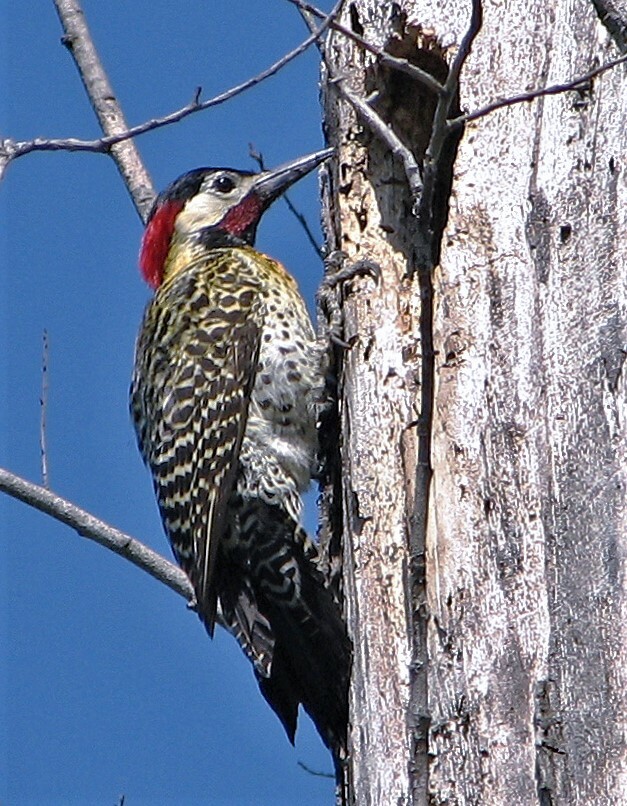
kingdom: Animalia
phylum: Chordata
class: Aves
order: Piciformes
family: Picidae
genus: Colaptes
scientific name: Colaptes melanochloros
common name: Green-barred woodpecker
